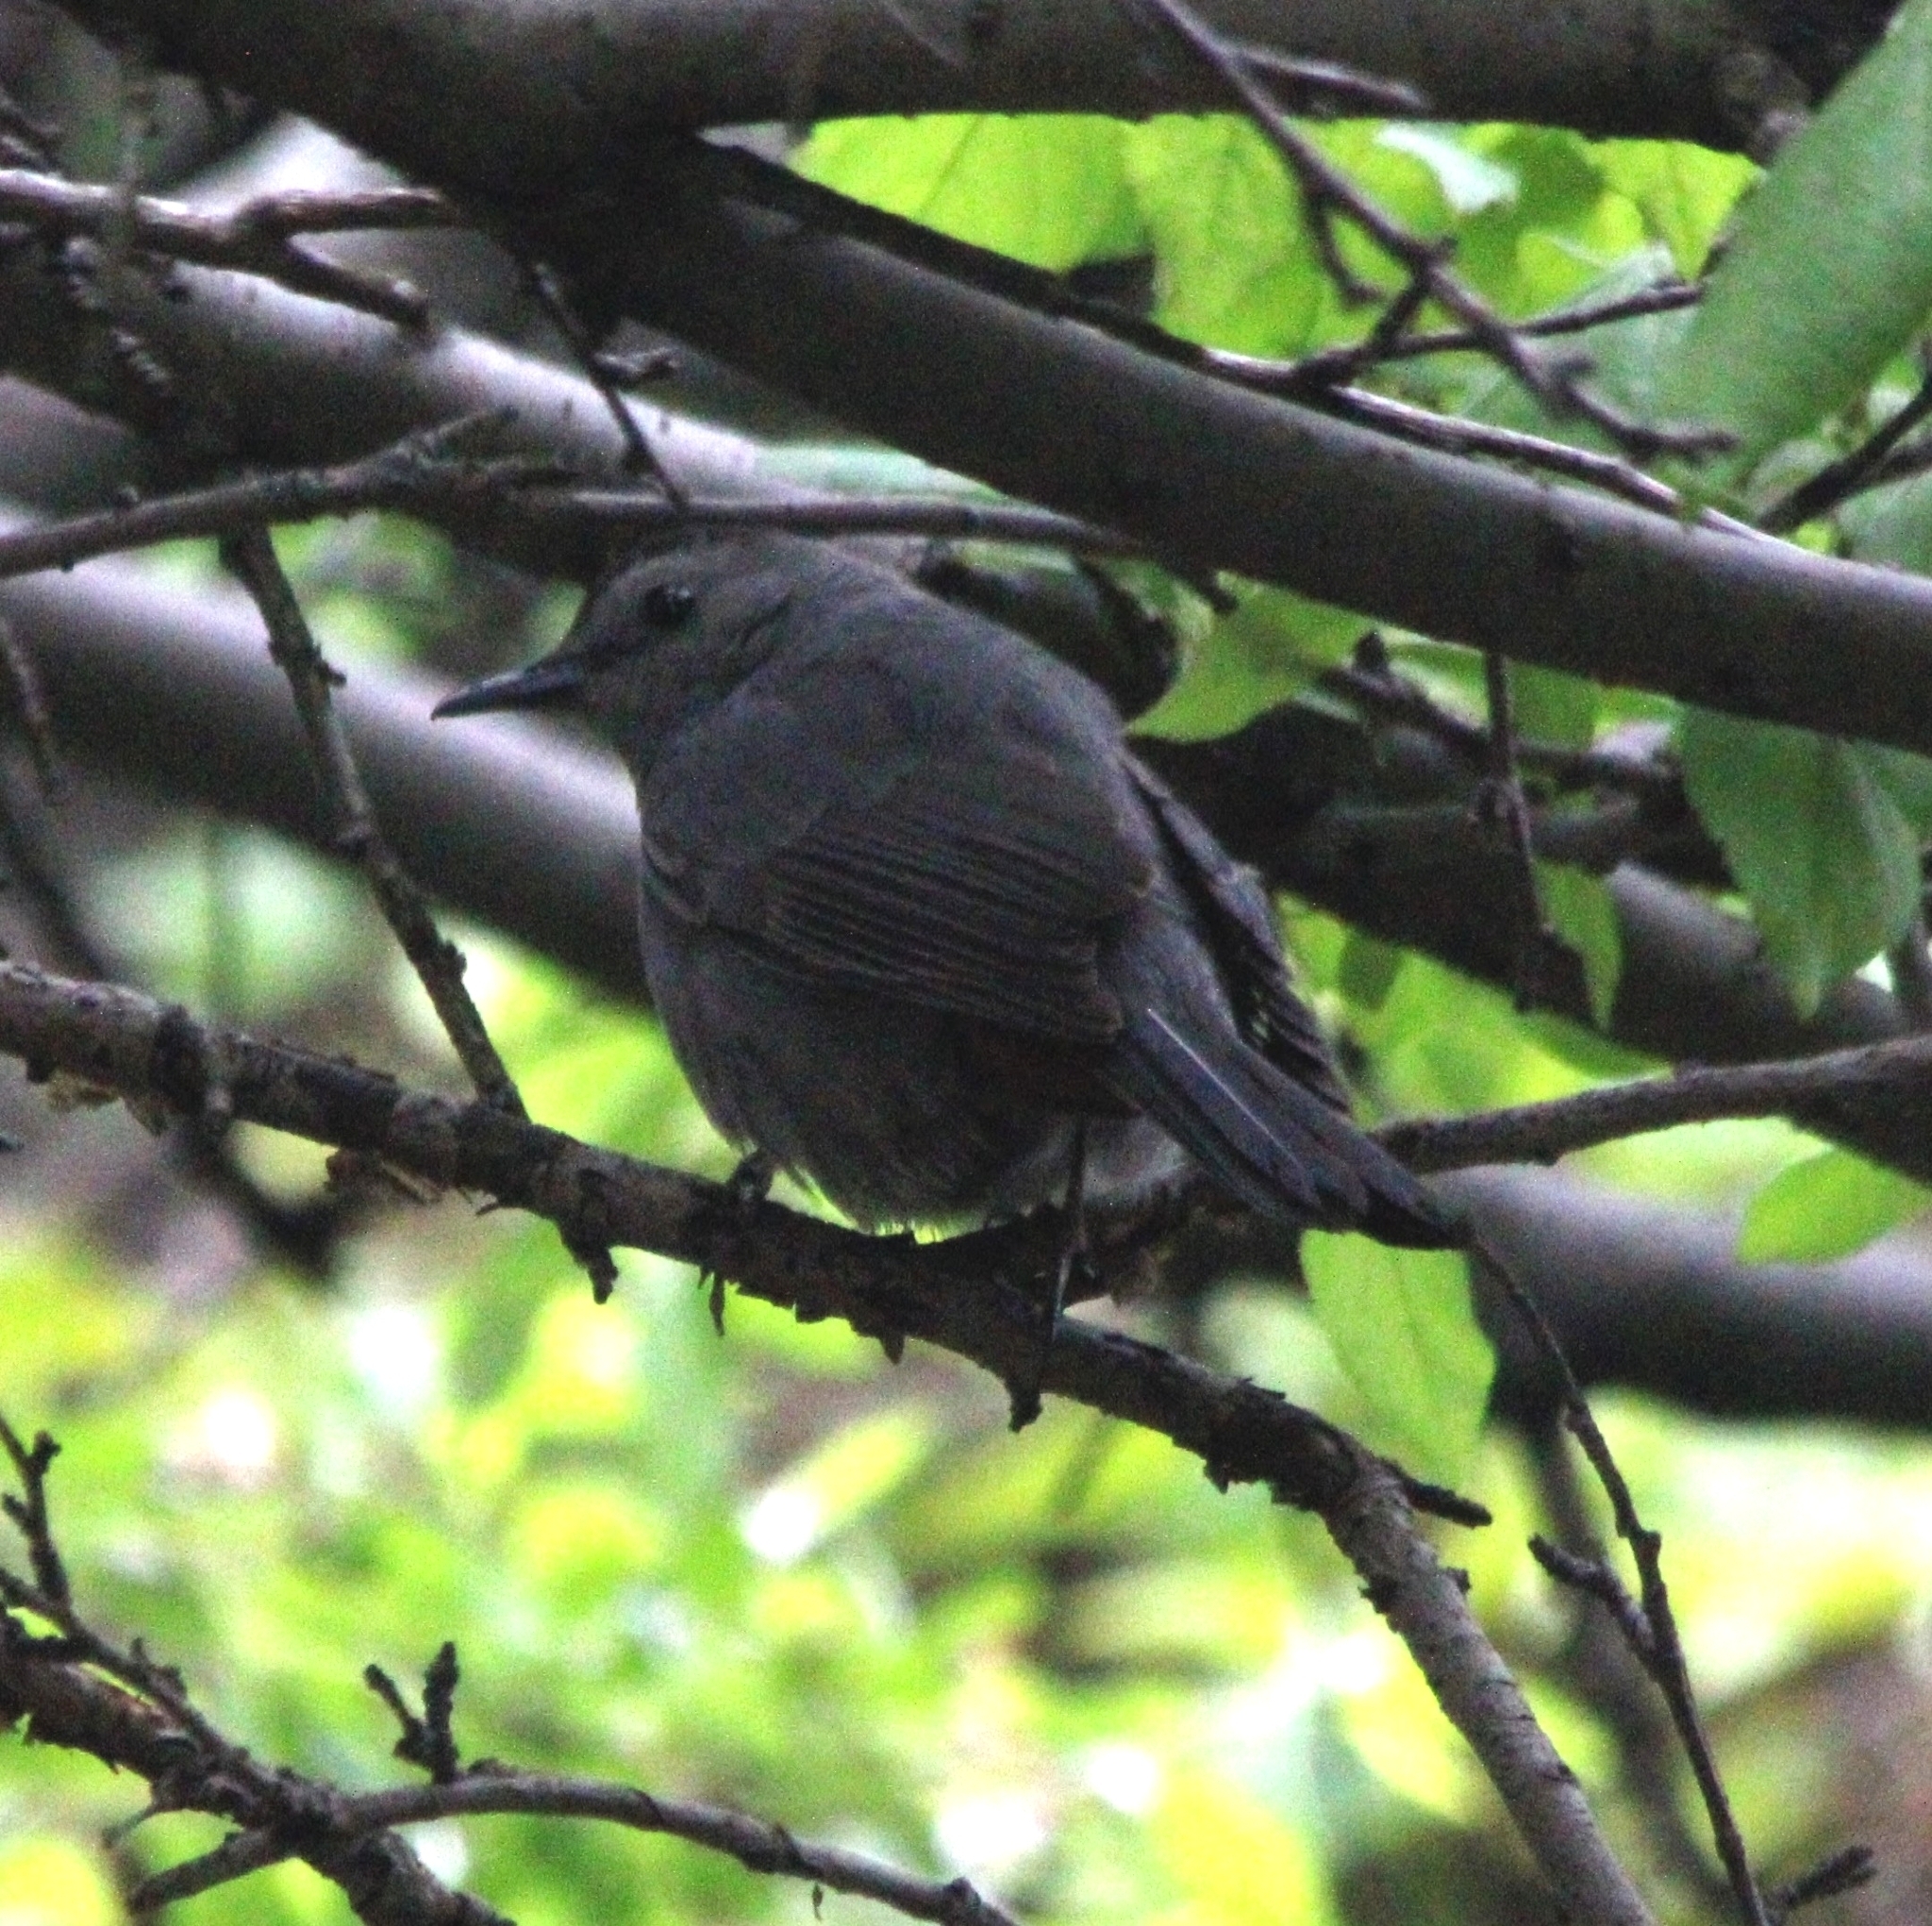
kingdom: Animalia
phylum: Chordata
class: Aves
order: Passeriformes
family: Mimidae
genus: Dumetella
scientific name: Dumetella carolinensis
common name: Gray catbird
